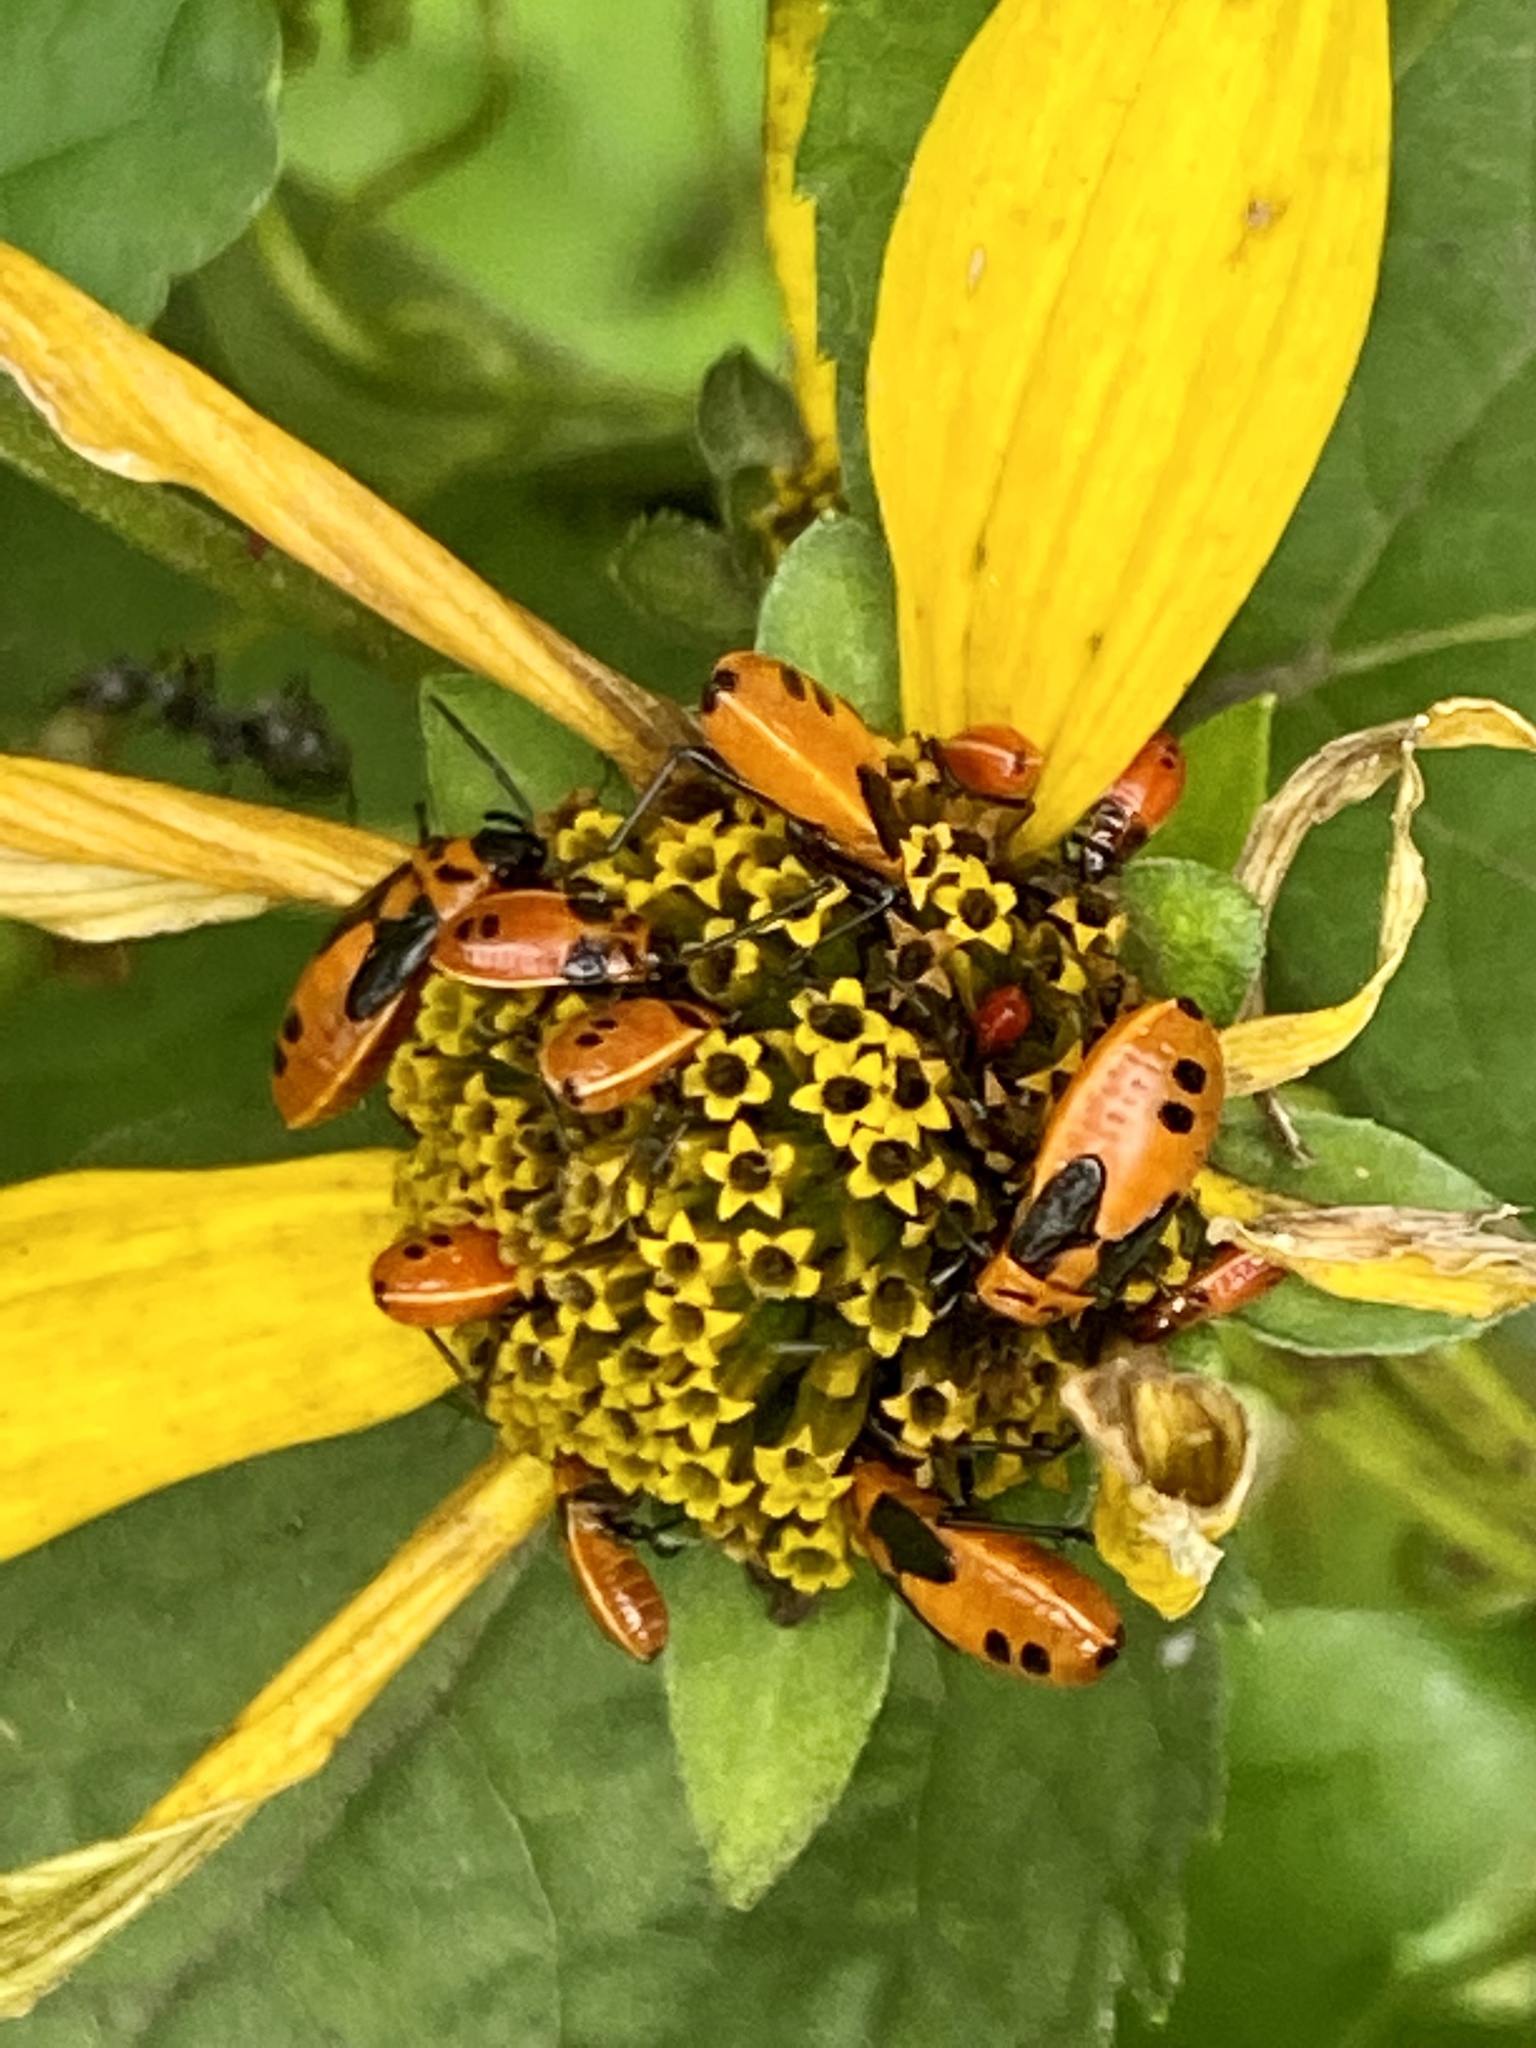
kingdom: Animalia
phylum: Arthropoda
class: Insecta
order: Hemiptera
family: Lygaeidae
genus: Lygaeus
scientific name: Lygaeus turcicus
